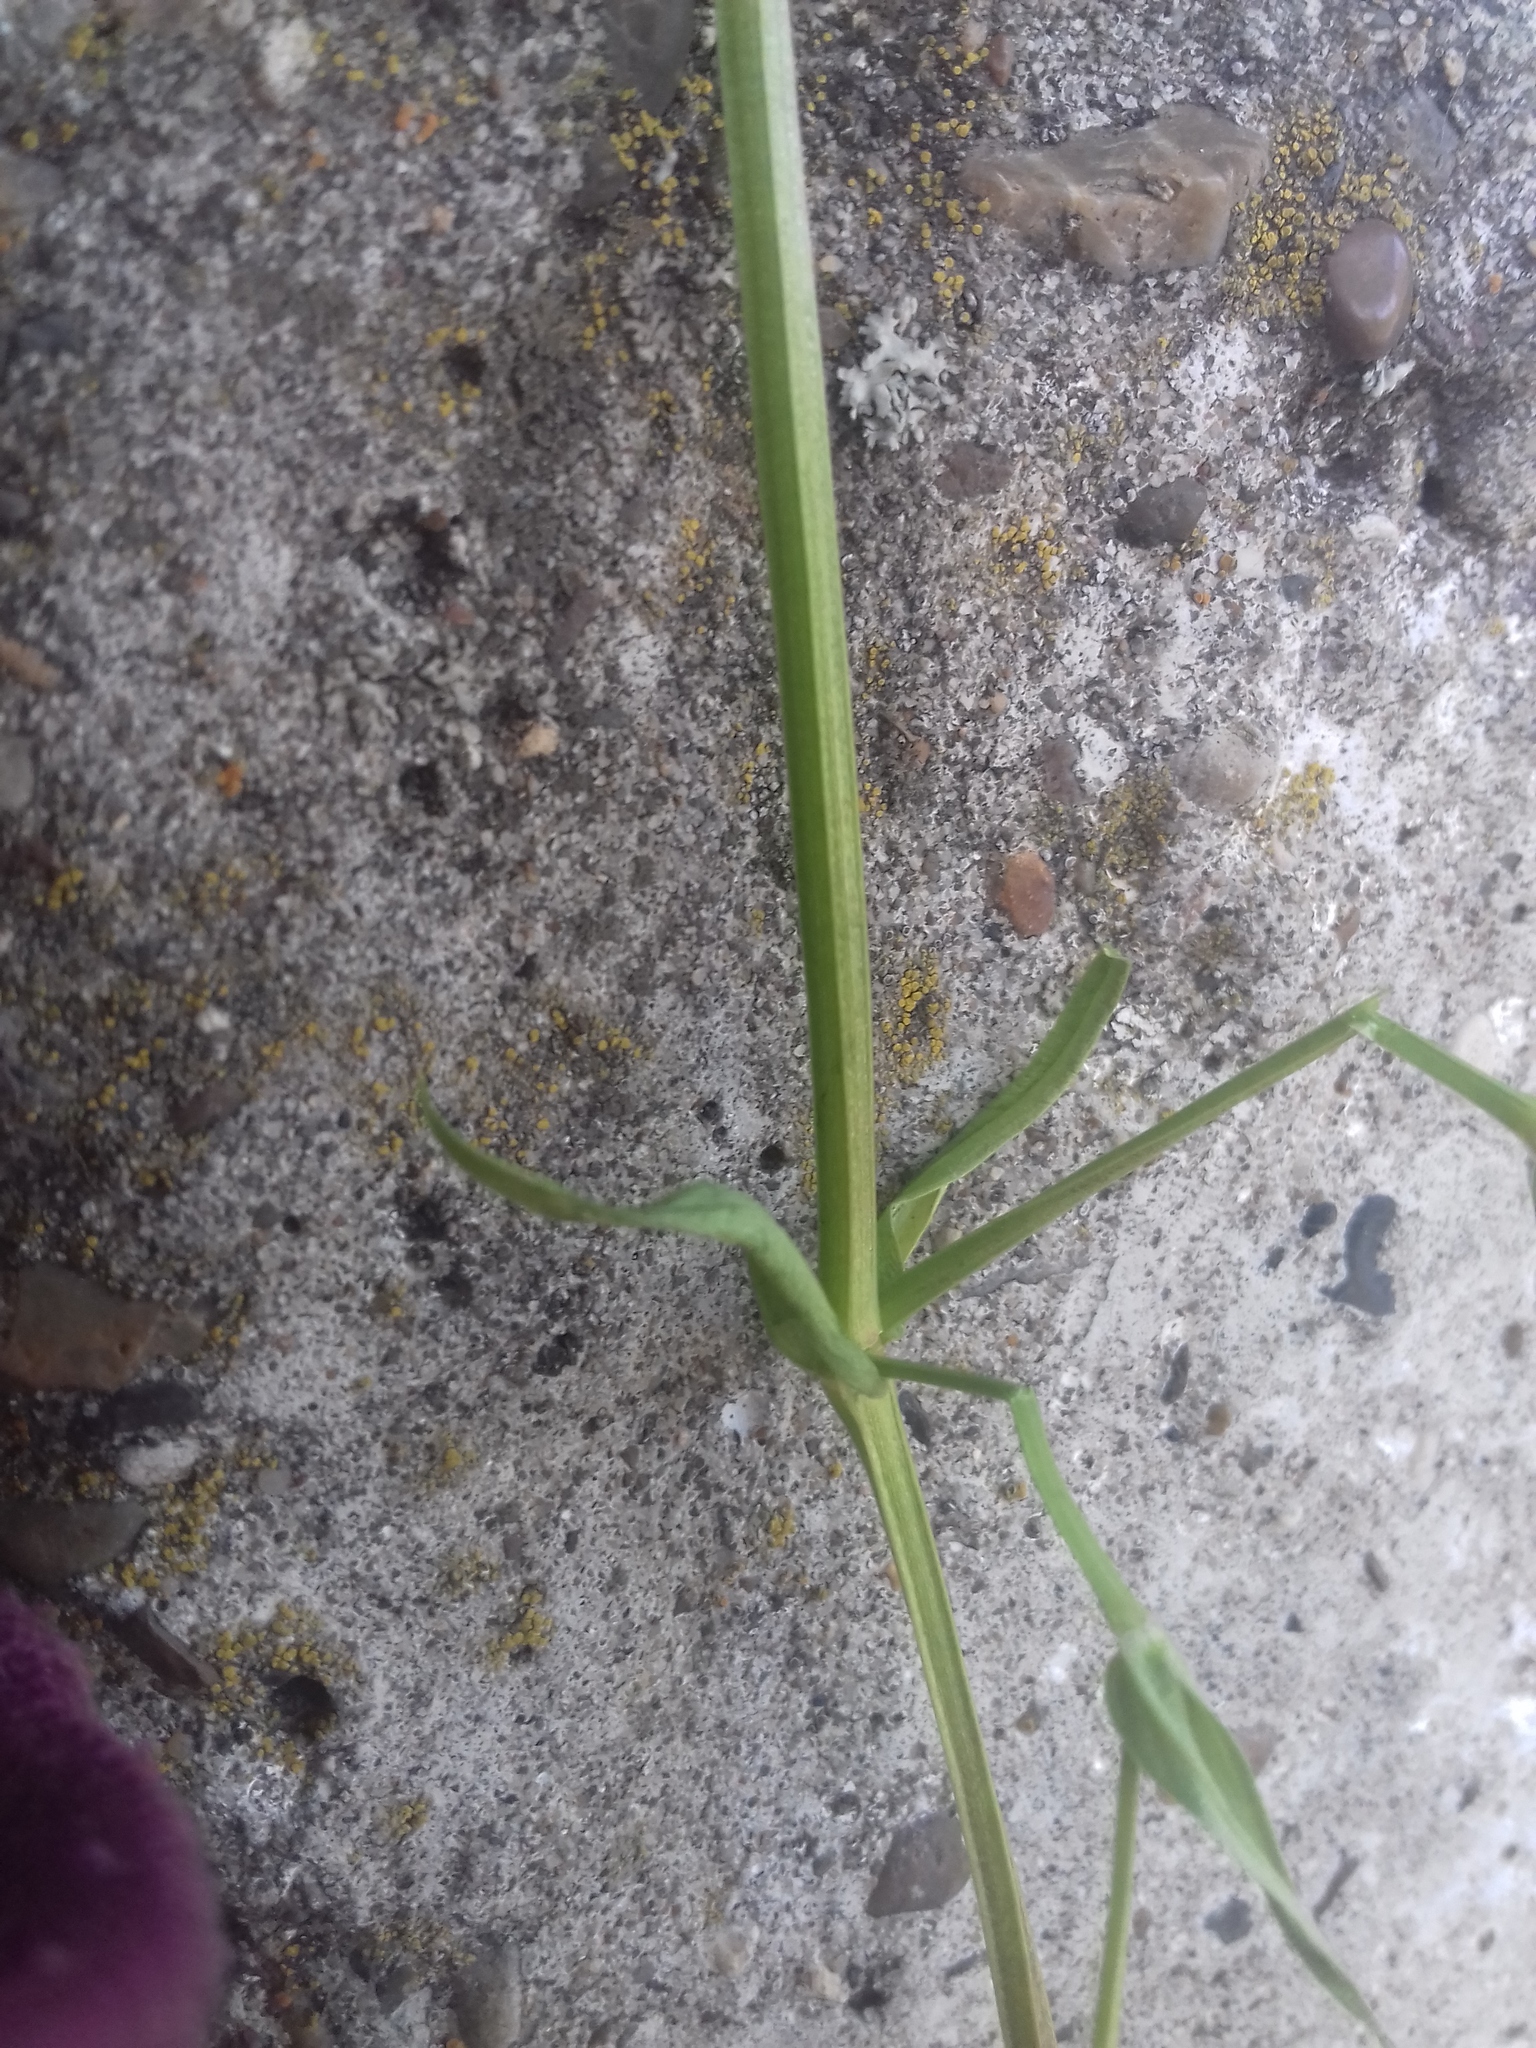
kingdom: Plantae
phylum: Tracheophyta
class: Magnoliopsida
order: Caryophyllales
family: Caryophyllaceae
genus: Stellaria
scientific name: Stellaria graminea
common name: Grass-like starwort
